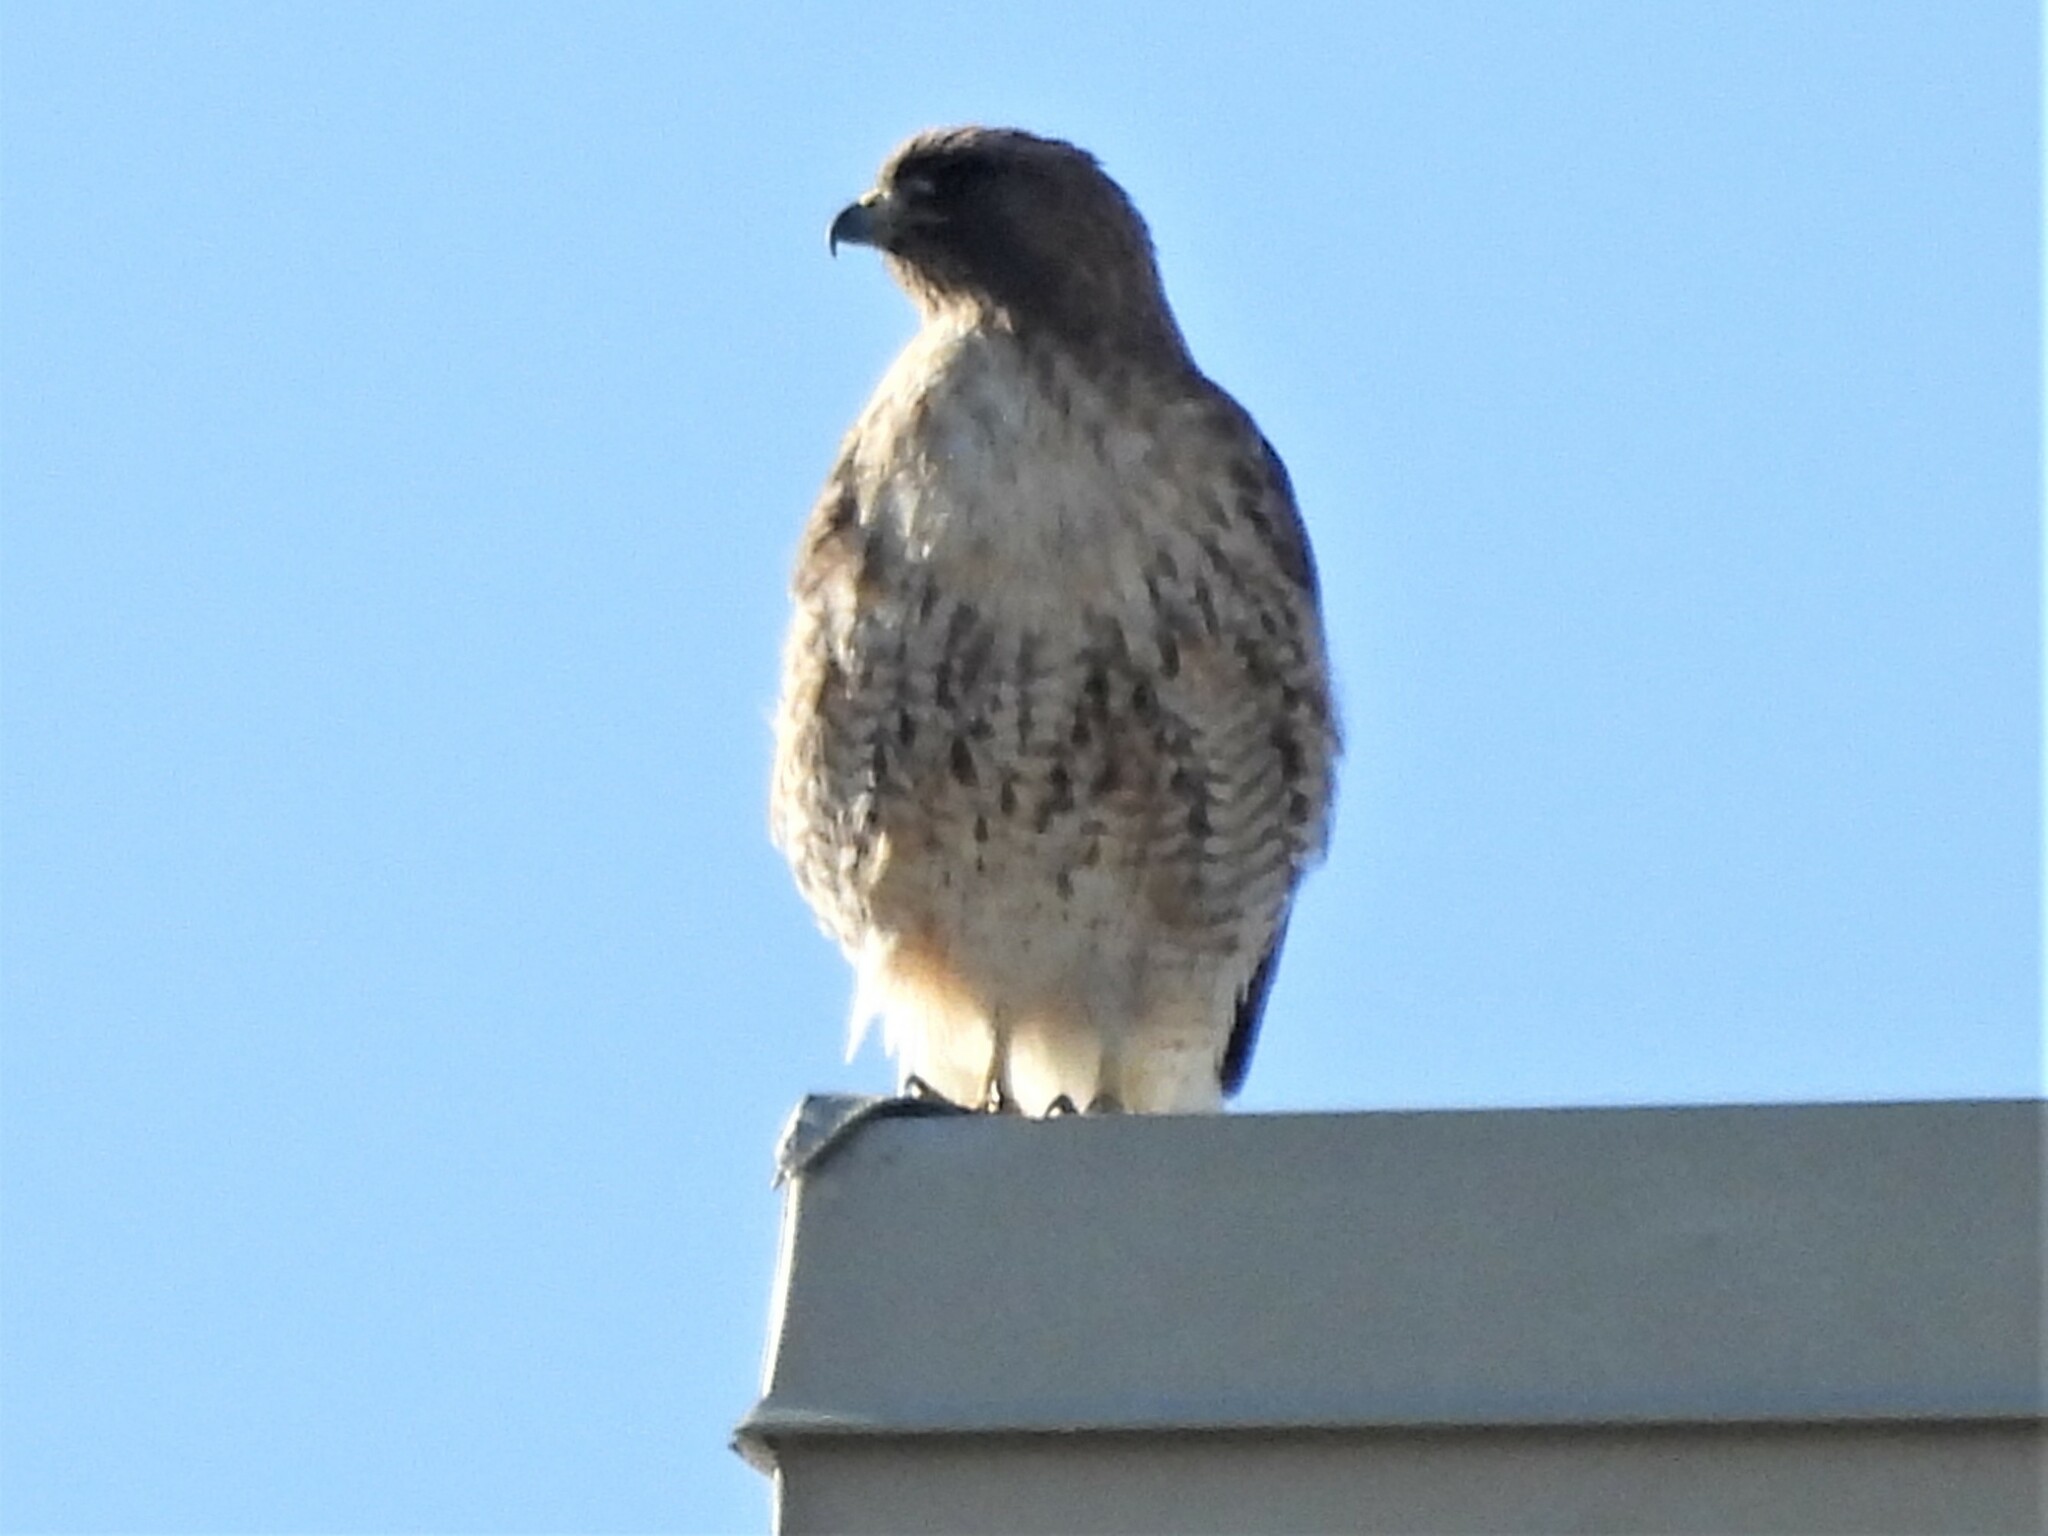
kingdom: Animalia
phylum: Chordata
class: Aves
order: Accipitriformes
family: Accipitridae
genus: Buteo
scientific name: Buteo jamaicensis
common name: Red-tailed hawk
